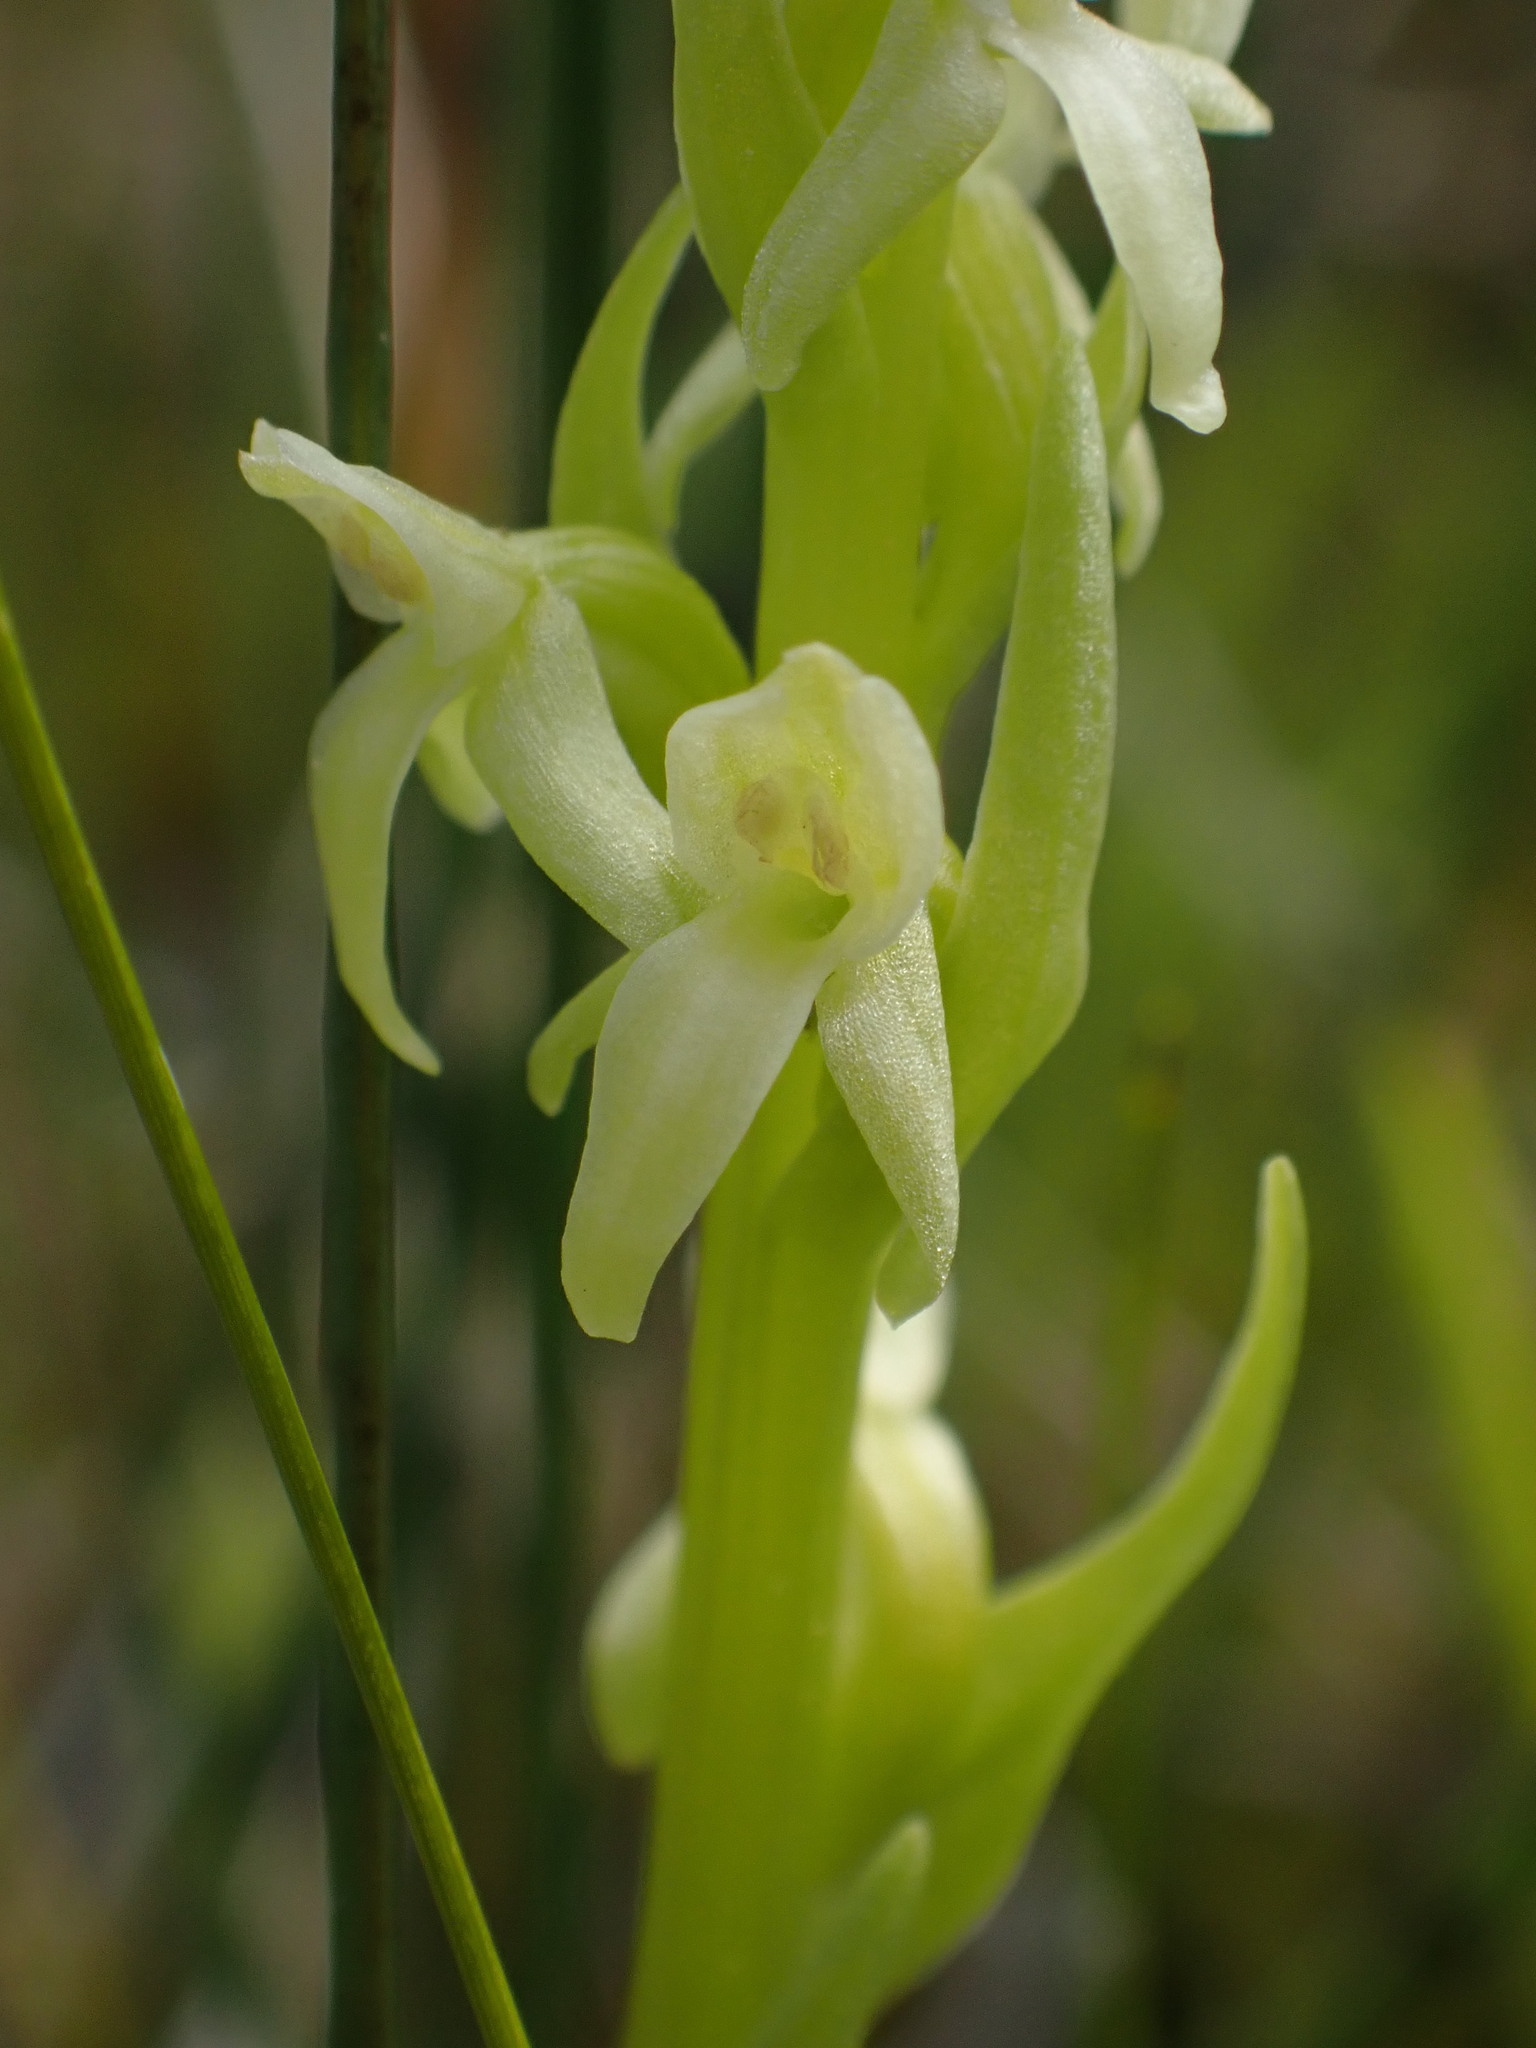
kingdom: Plantae
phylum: Tracheophyta
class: Liliopsida
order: Asparagales
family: Orchidaceae
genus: Platanthera
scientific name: Platanthera huronensis
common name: Fragrant green orchid
